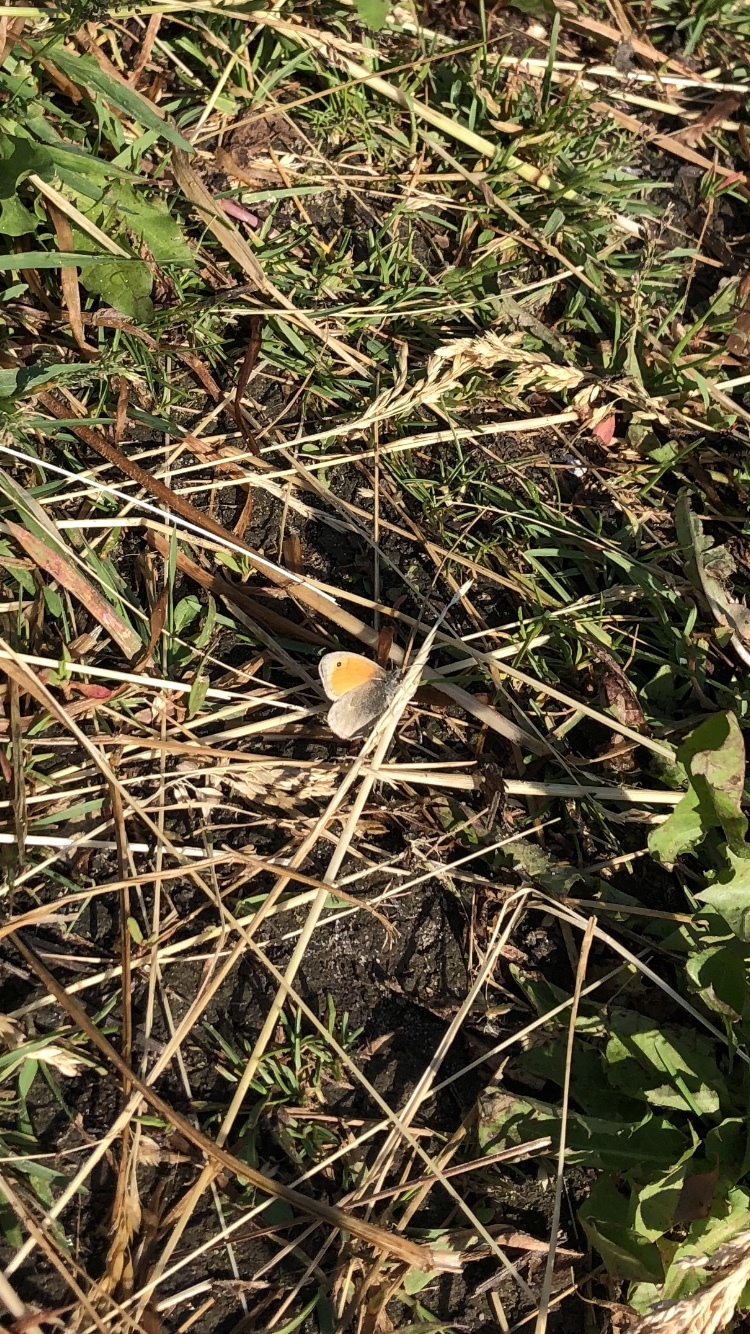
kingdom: Animalia
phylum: Arthropoda
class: Insecta
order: Lepidoptera
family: Nymphalidae
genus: Coenonympha
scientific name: Coenonympha pamphilus
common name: Small heath
